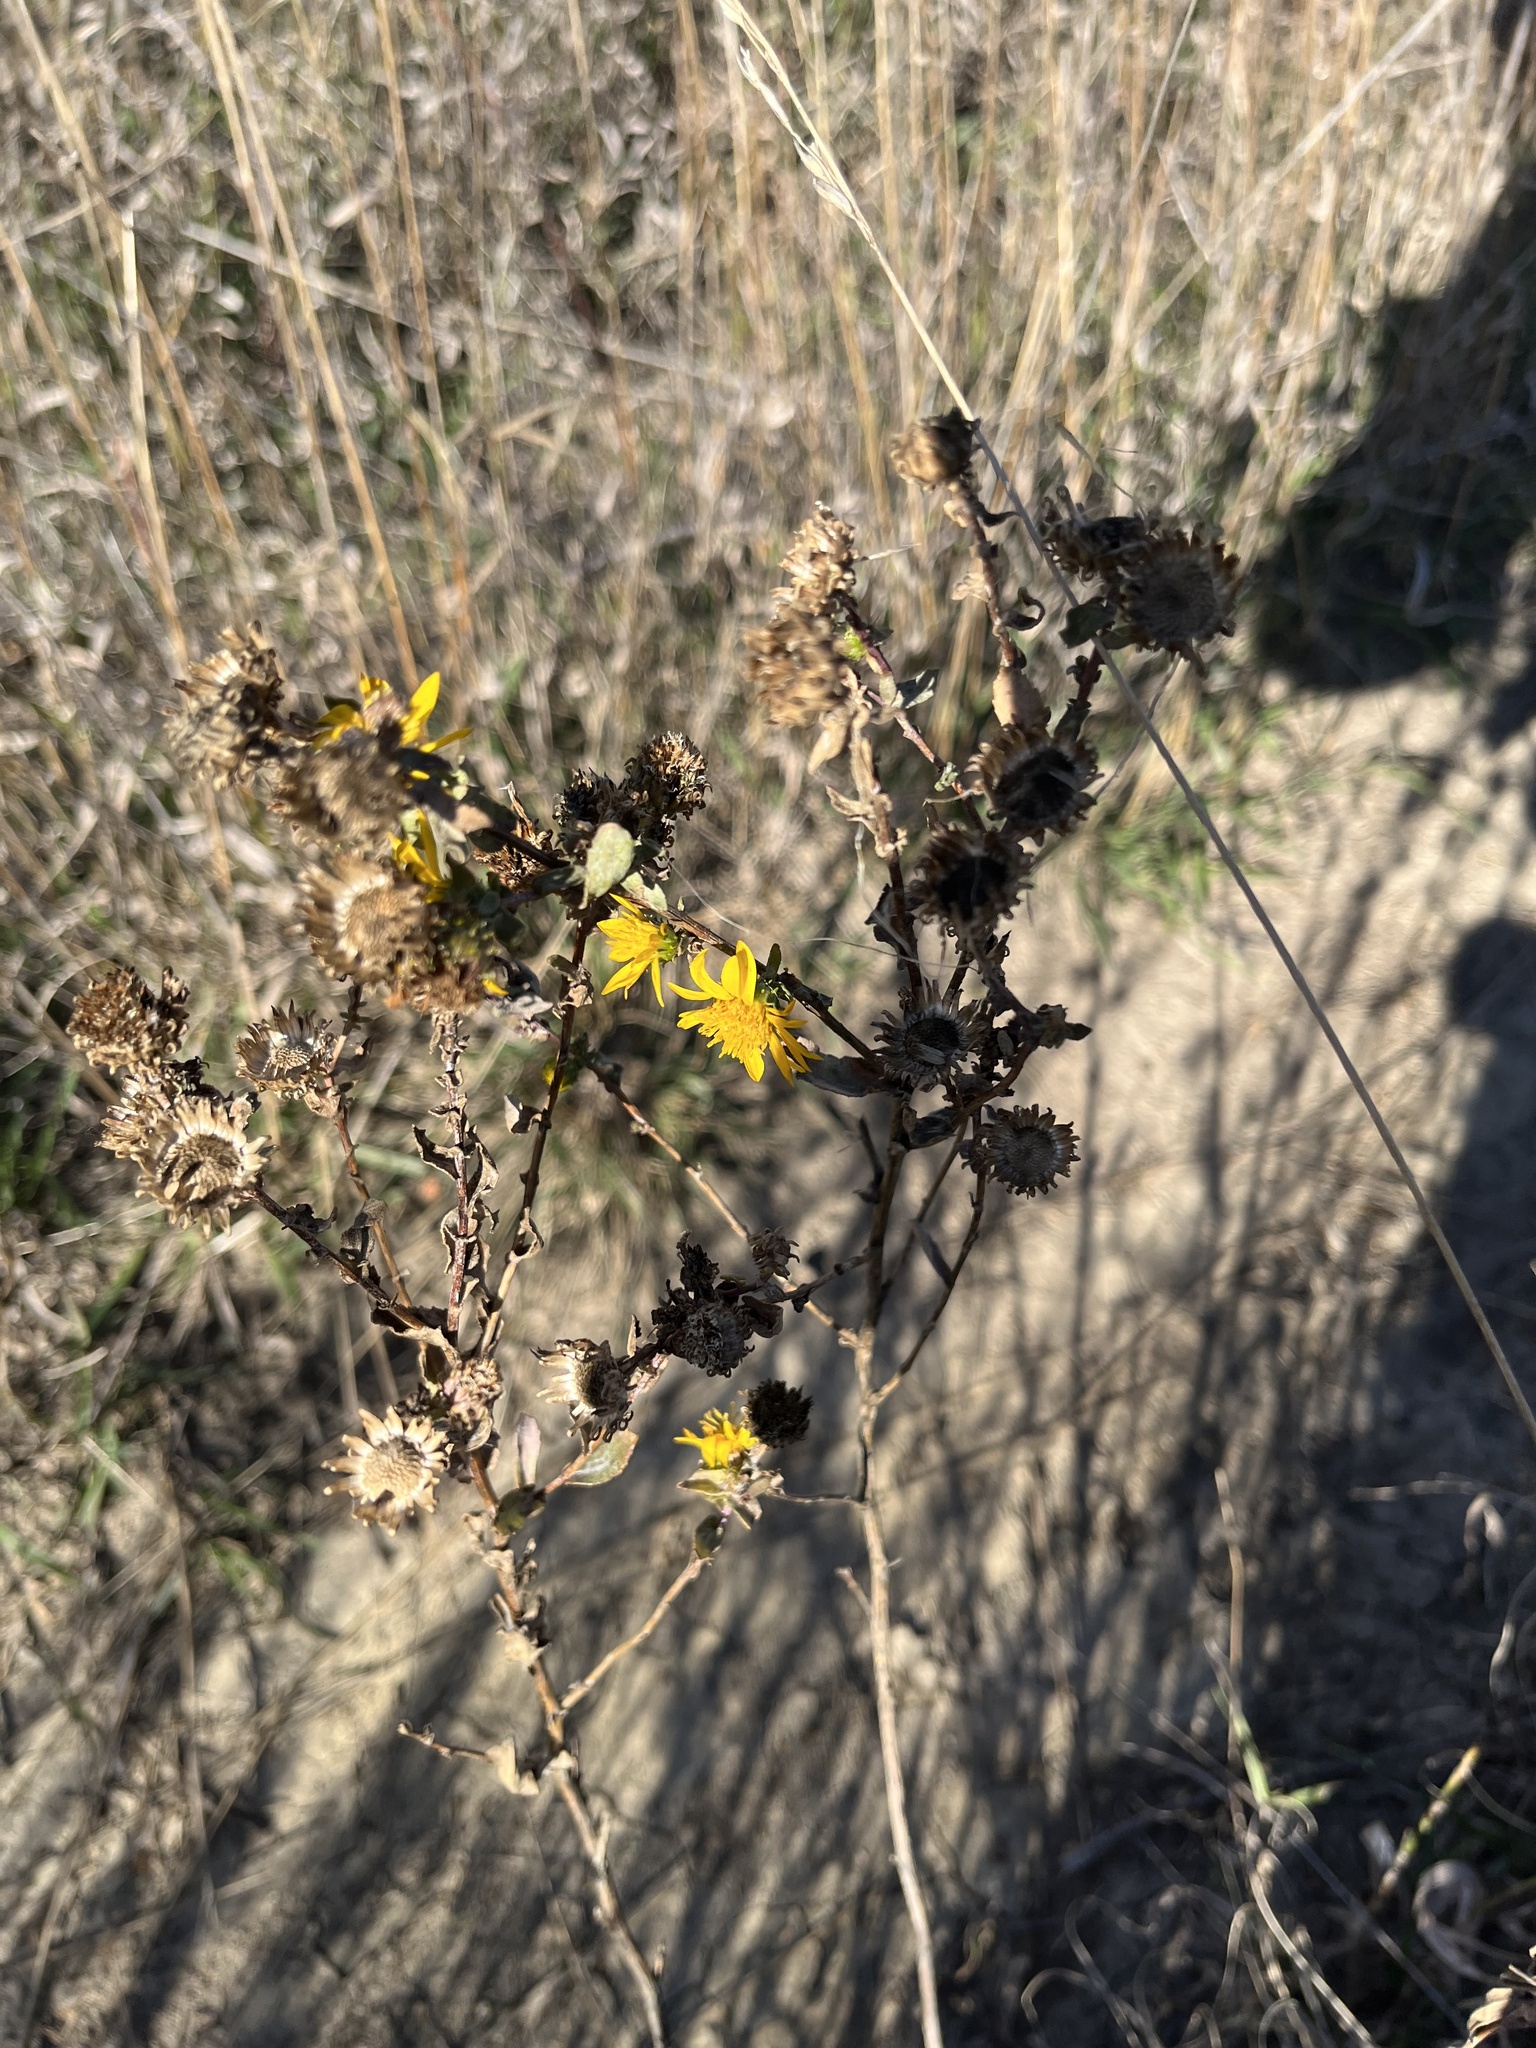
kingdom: Plantae
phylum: Tracheophyta
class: Magnoliopsida
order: Asterales
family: Asteraceae
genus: Grindelia
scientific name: Grindelia squarrosa
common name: Curly-cup gumweed
